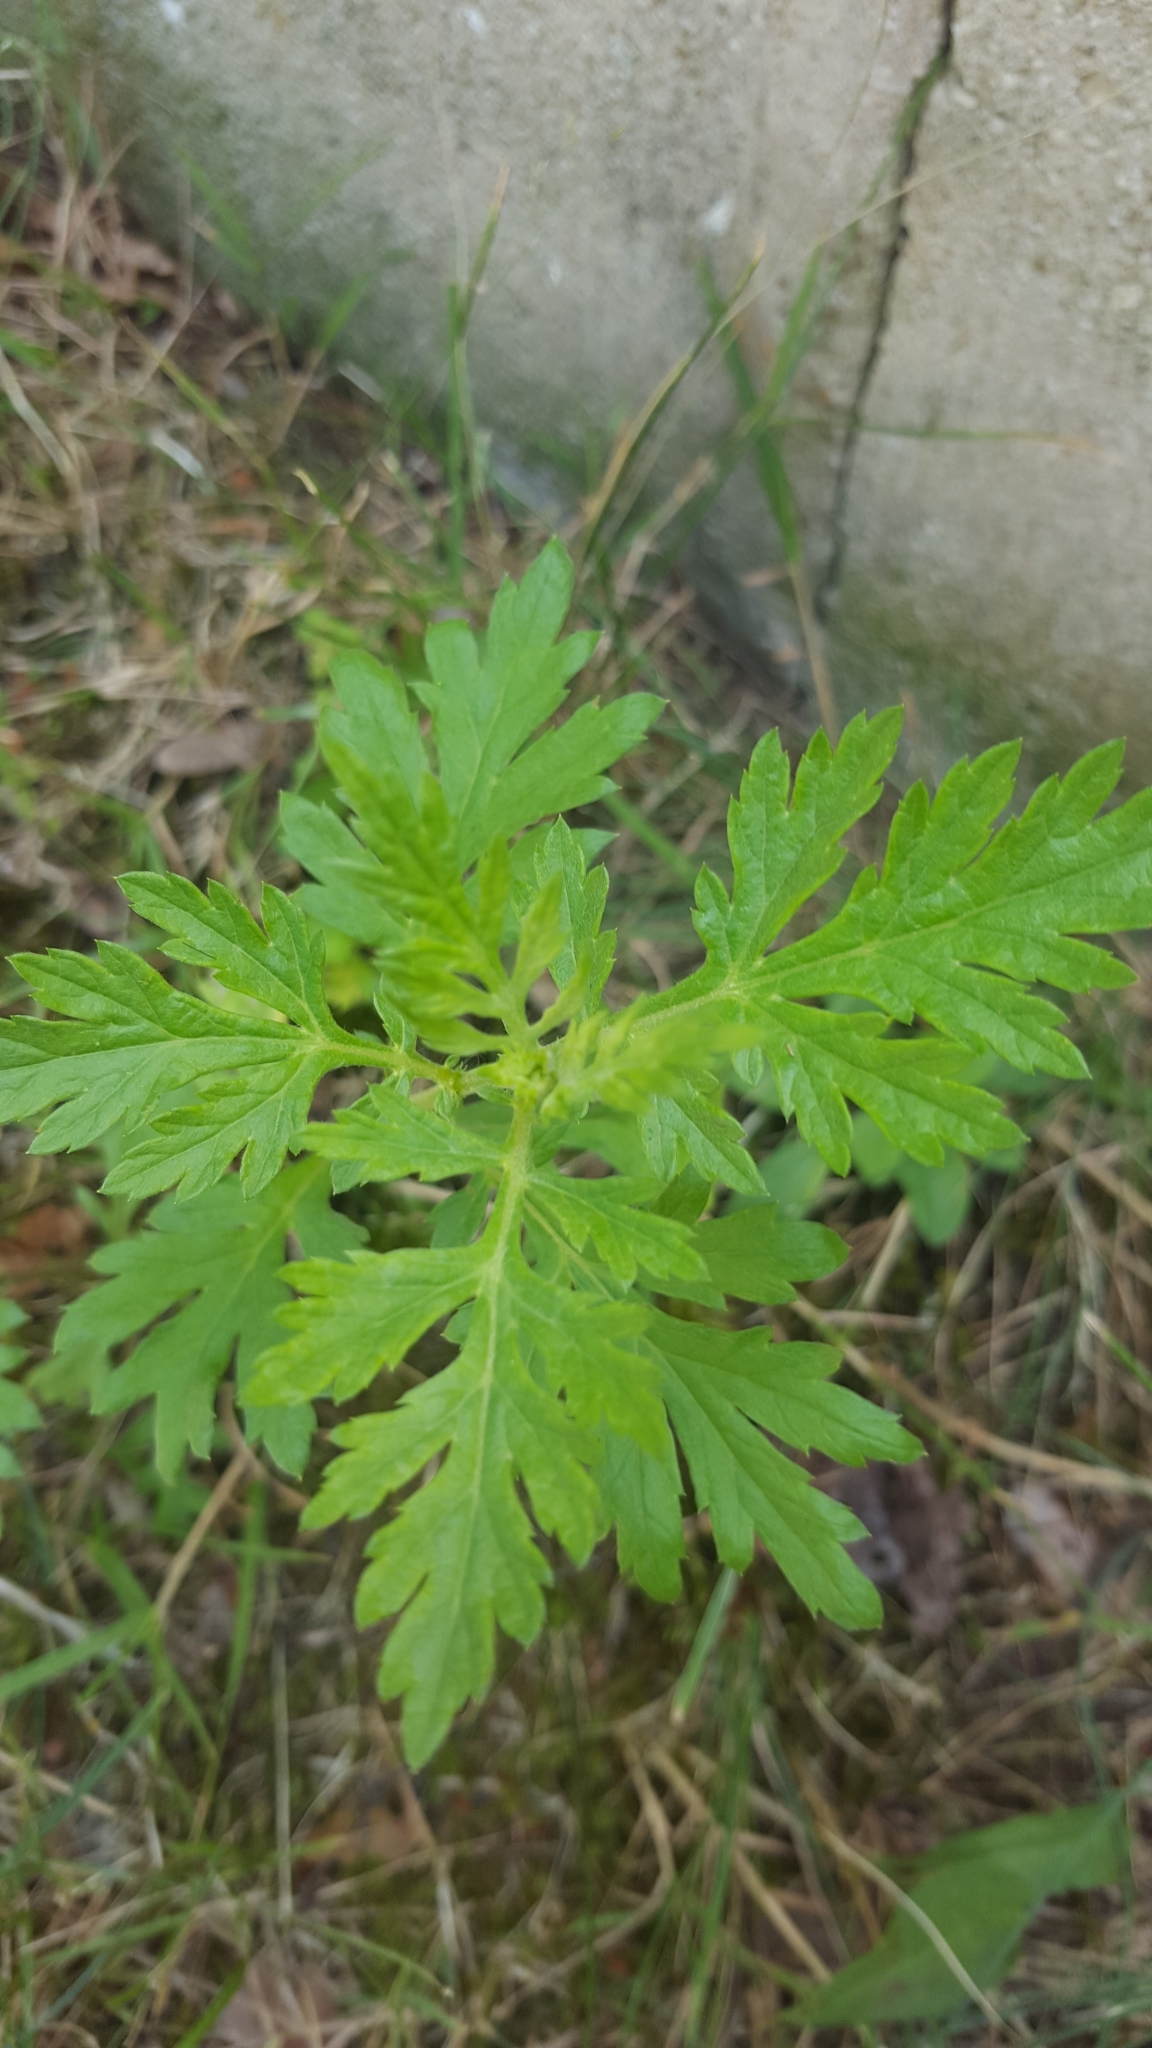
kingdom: Plantae
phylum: Tracheophyta
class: Magnoliopsida
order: Asterales
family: Asteraceae
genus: Artemisia
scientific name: Artemisia vulgaris
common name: Mugwort
